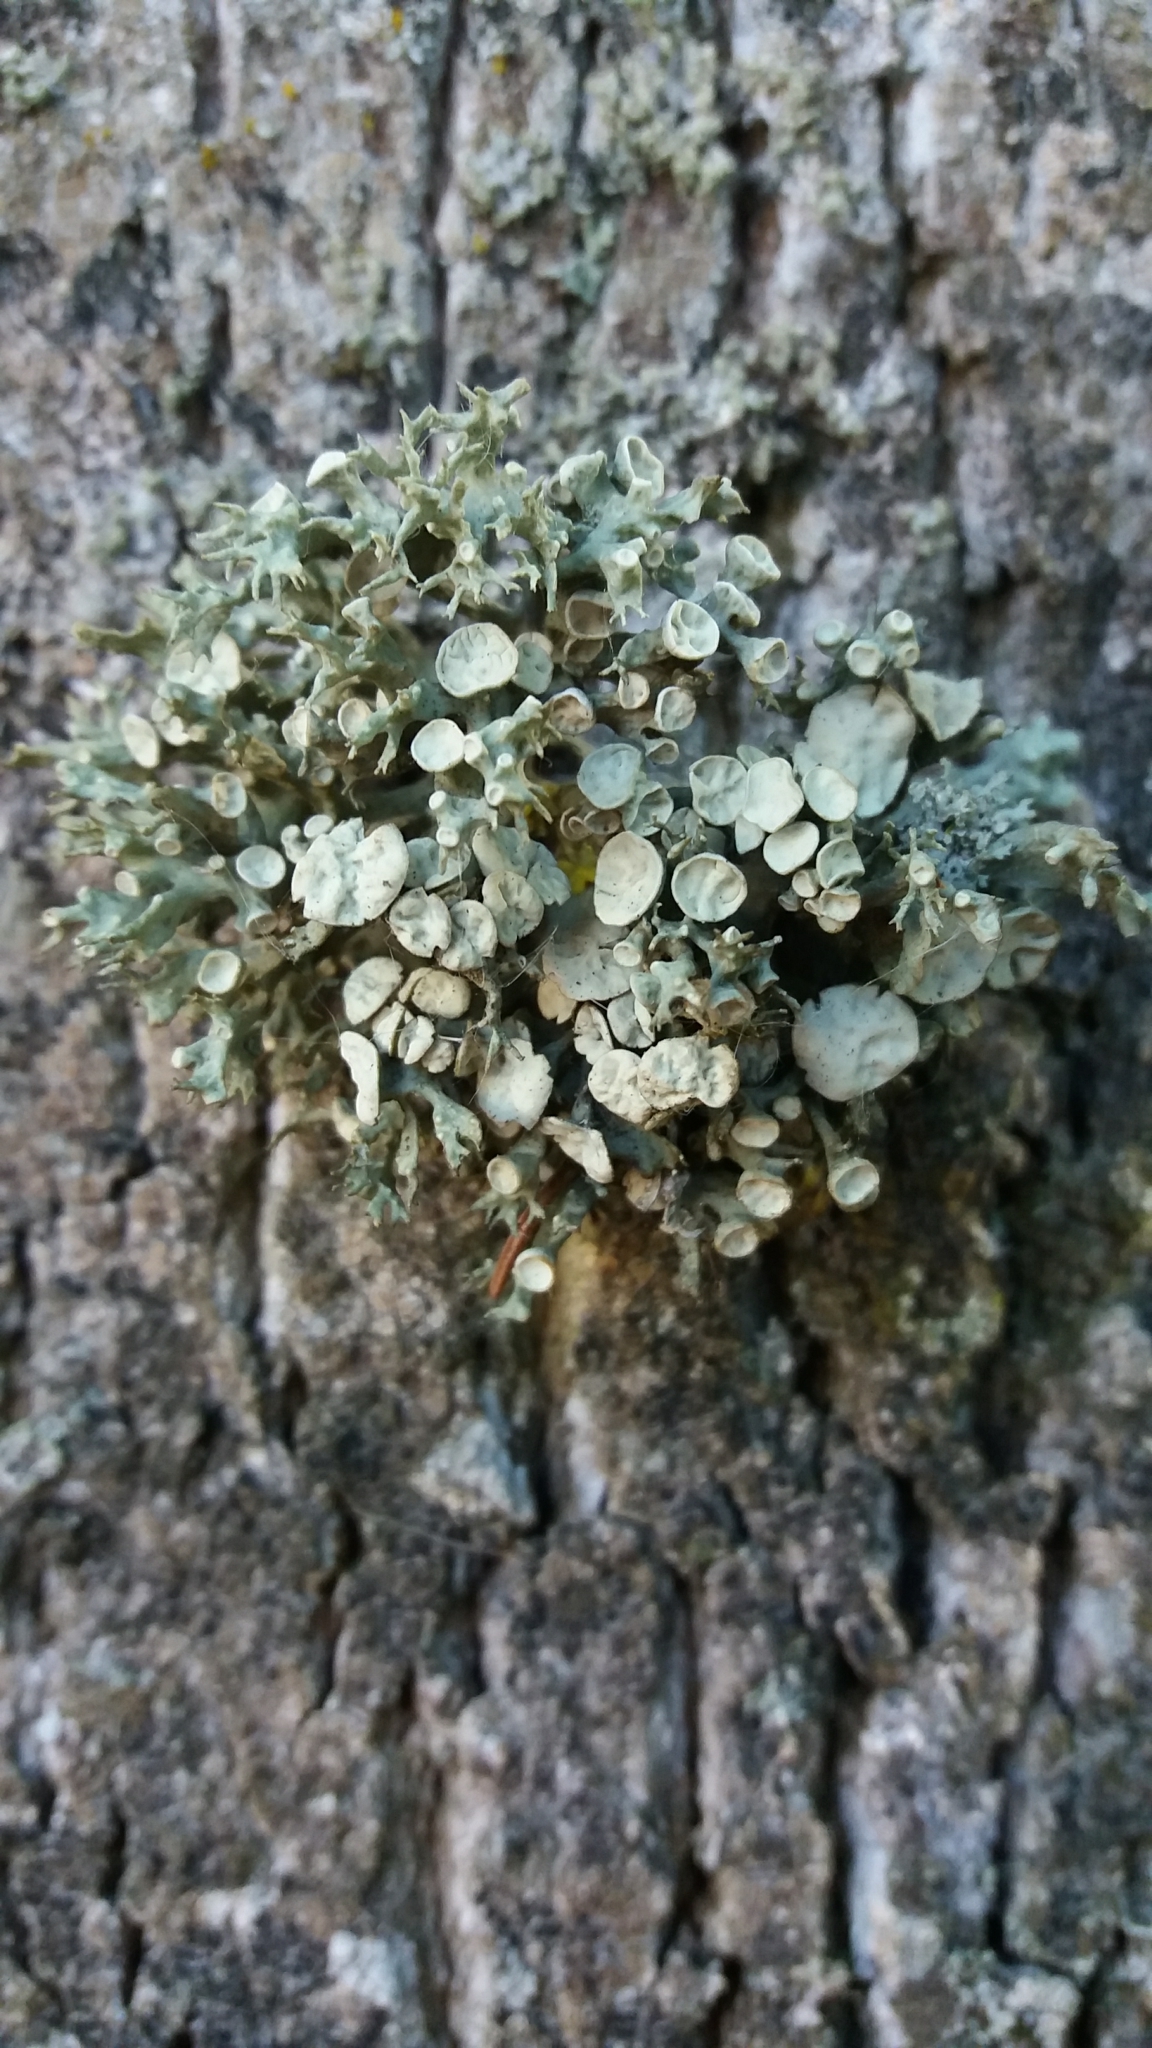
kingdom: Fungi
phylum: Ascomycota
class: Lecanoromycetes
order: Lecanorales
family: Ramalinaceae
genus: Ramalina
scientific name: Ramalina fastigiata
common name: Dotted ribbon lichen
